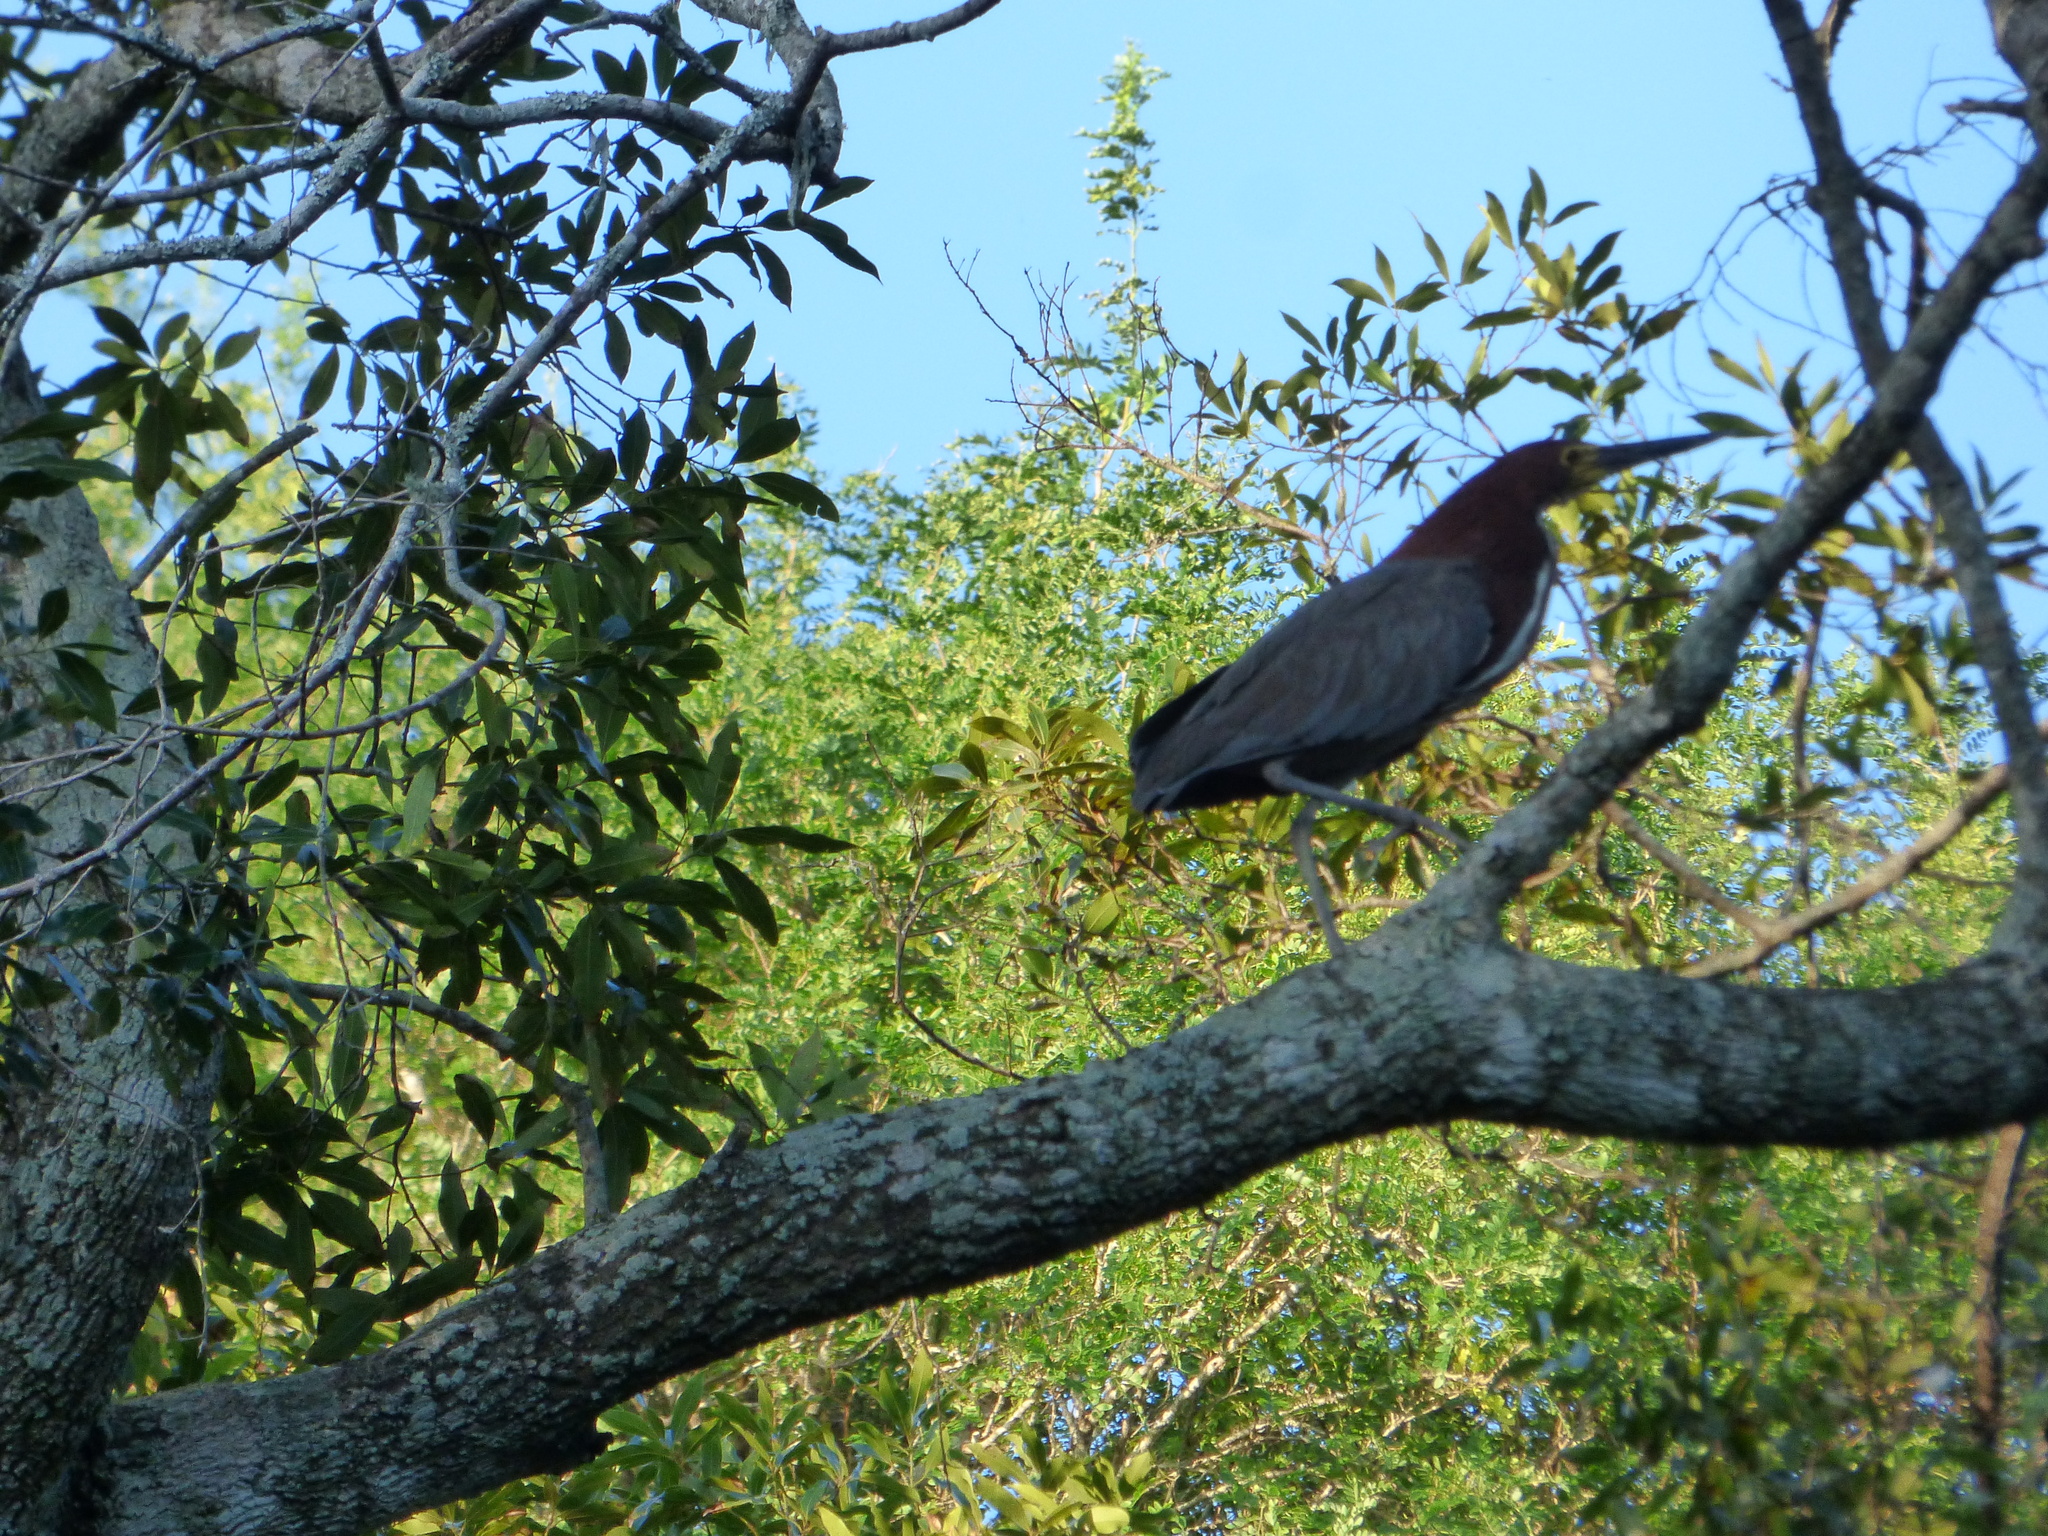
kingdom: Animalia
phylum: Chordata
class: Aves
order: Pelecaniformes
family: Ardeidae
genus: Tigrisoma
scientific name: Tigrisoma lineatum
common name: Rufescent tiger-heron
